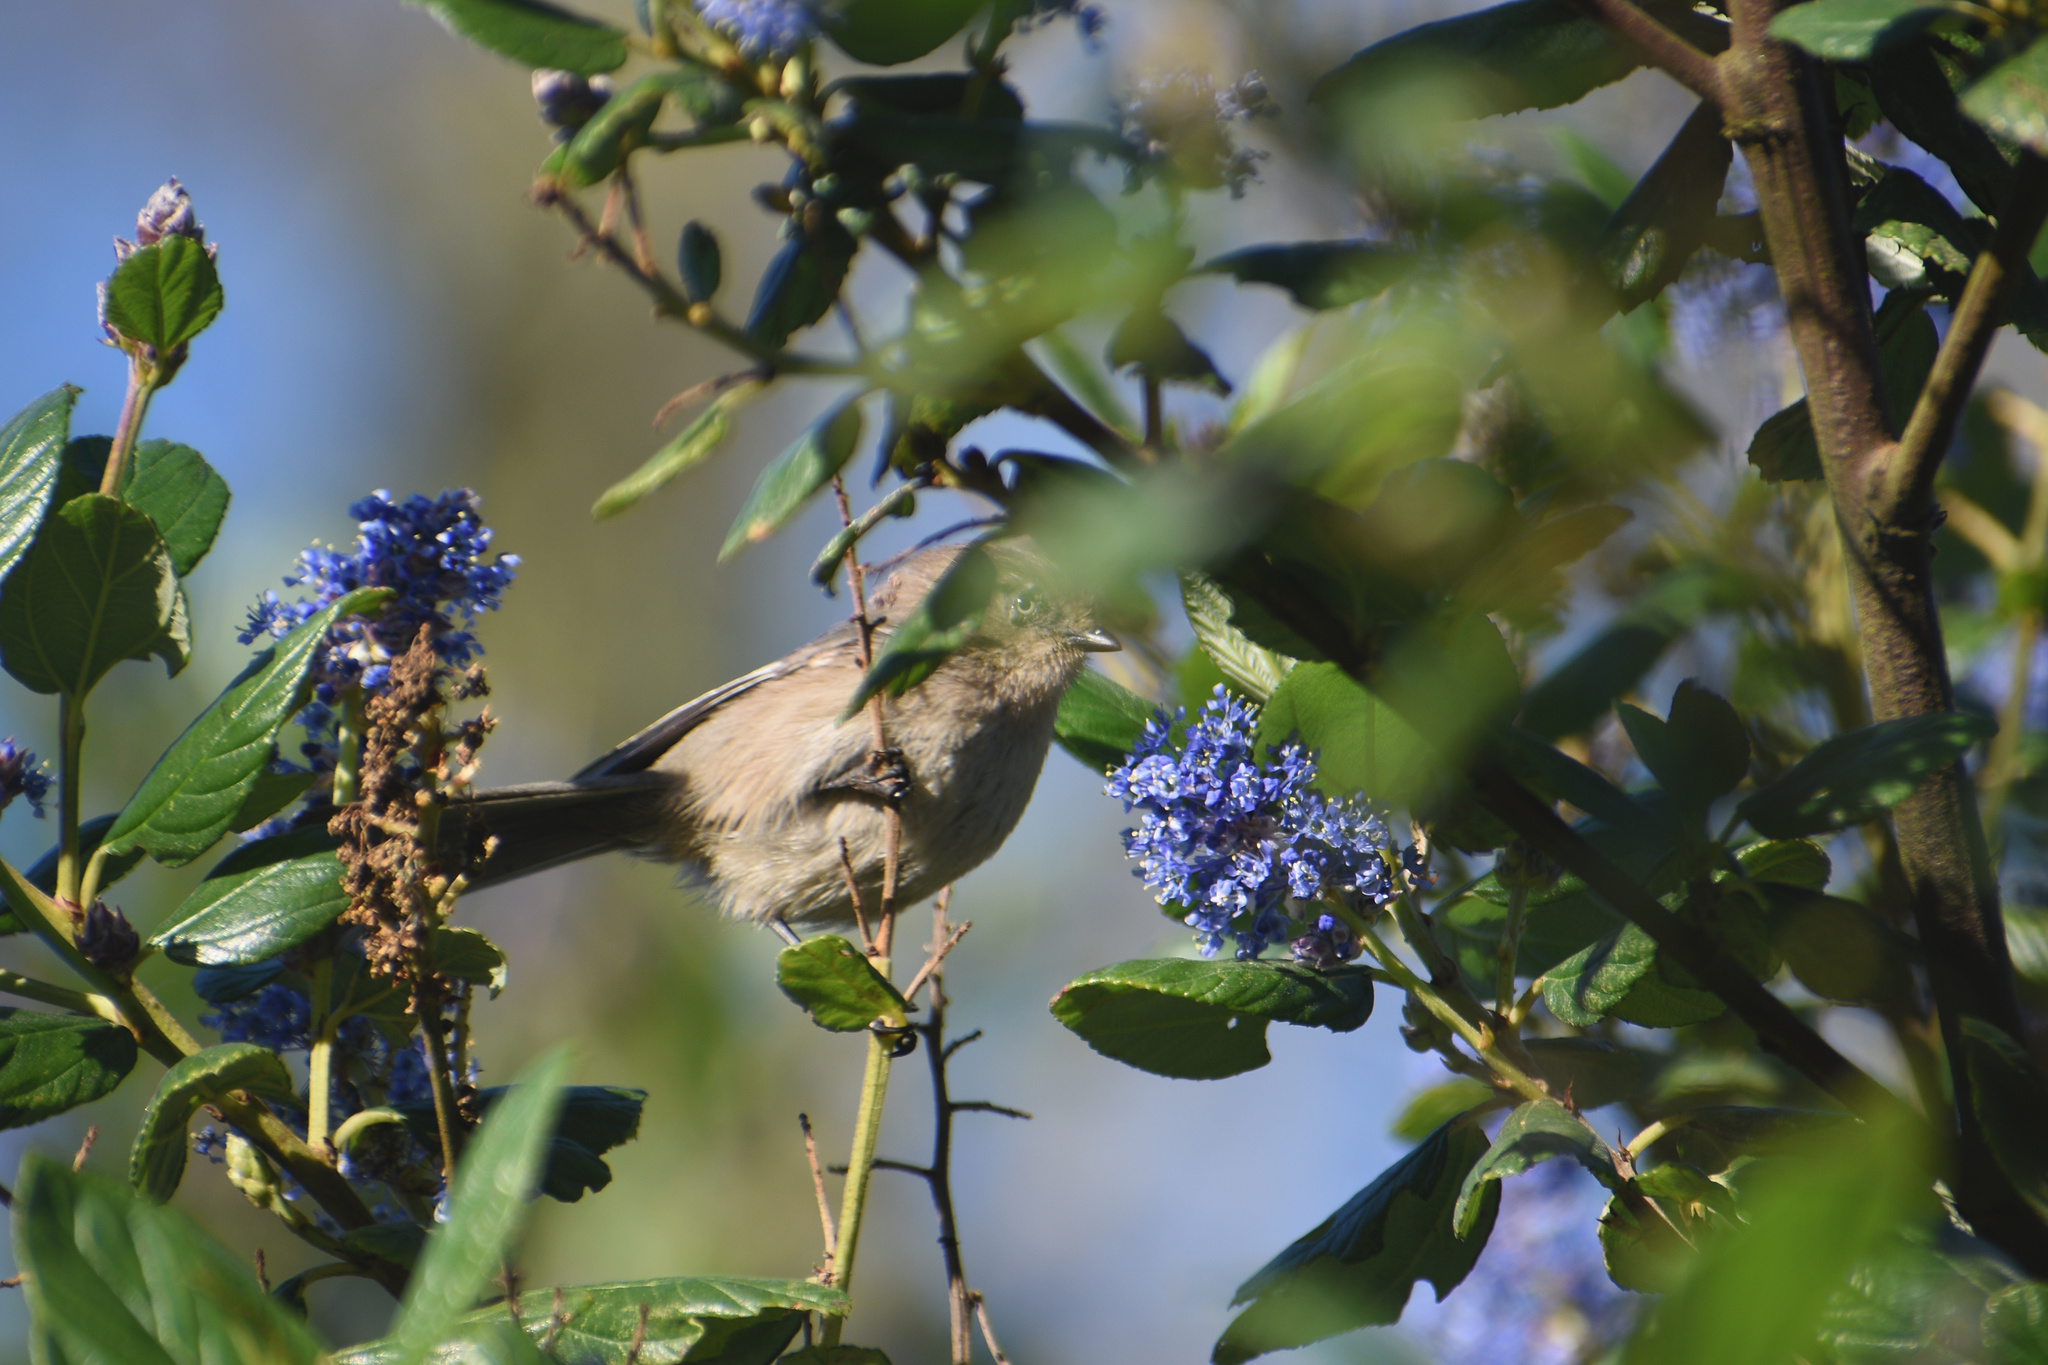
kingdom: Animalia
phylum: Chordata
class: Aves
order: Passeriformes
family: Aegithalidae
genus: Psaltriparus
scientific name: Psaltriparus minimus
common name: American bushtit
